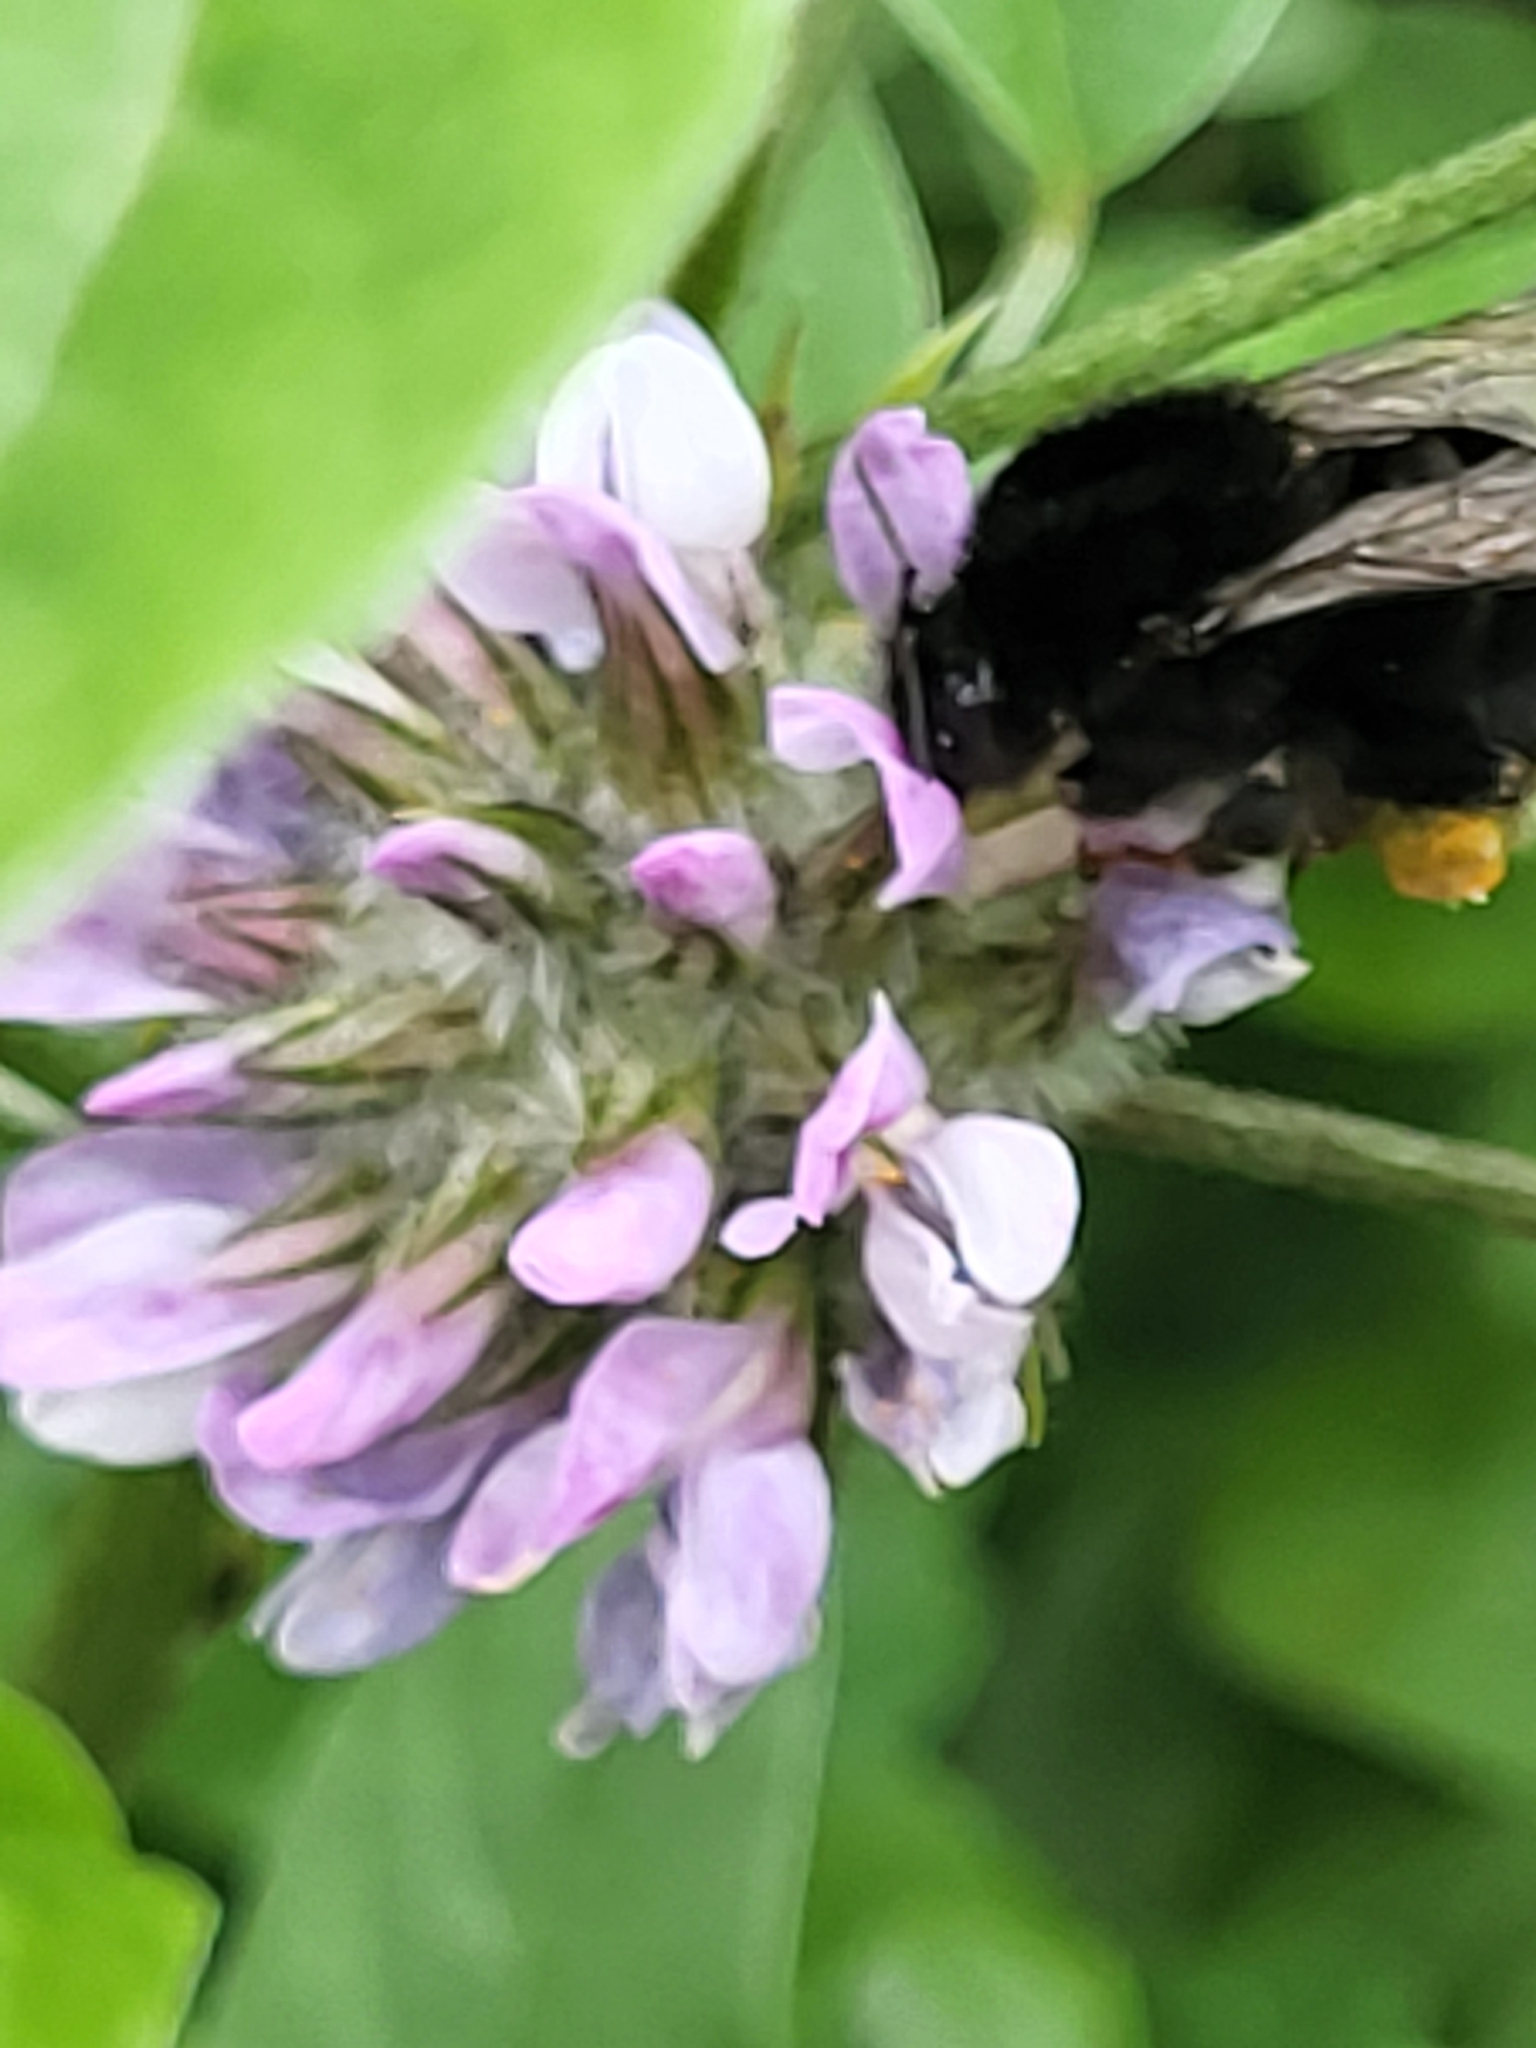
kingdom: Animalia
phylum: Arthropoda
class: Insecta
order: Hymenoptera
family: Apidae
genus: Bombus
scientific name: Bombus terrestris
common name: Buff-tailed bumblebee
